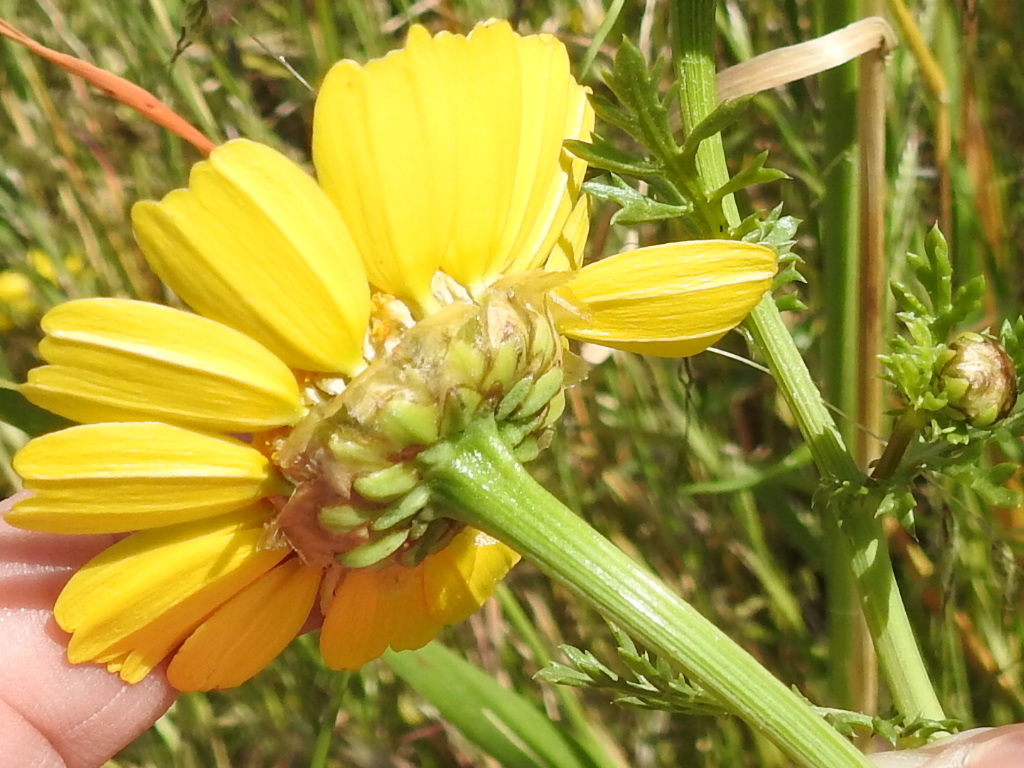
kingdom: Plantae
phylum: Tracheophyta
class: Magnoliopsida
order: Asterales
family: Asteraceae
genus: Glebionis
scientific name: Glebionis coronaria
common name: Crowndaisy
